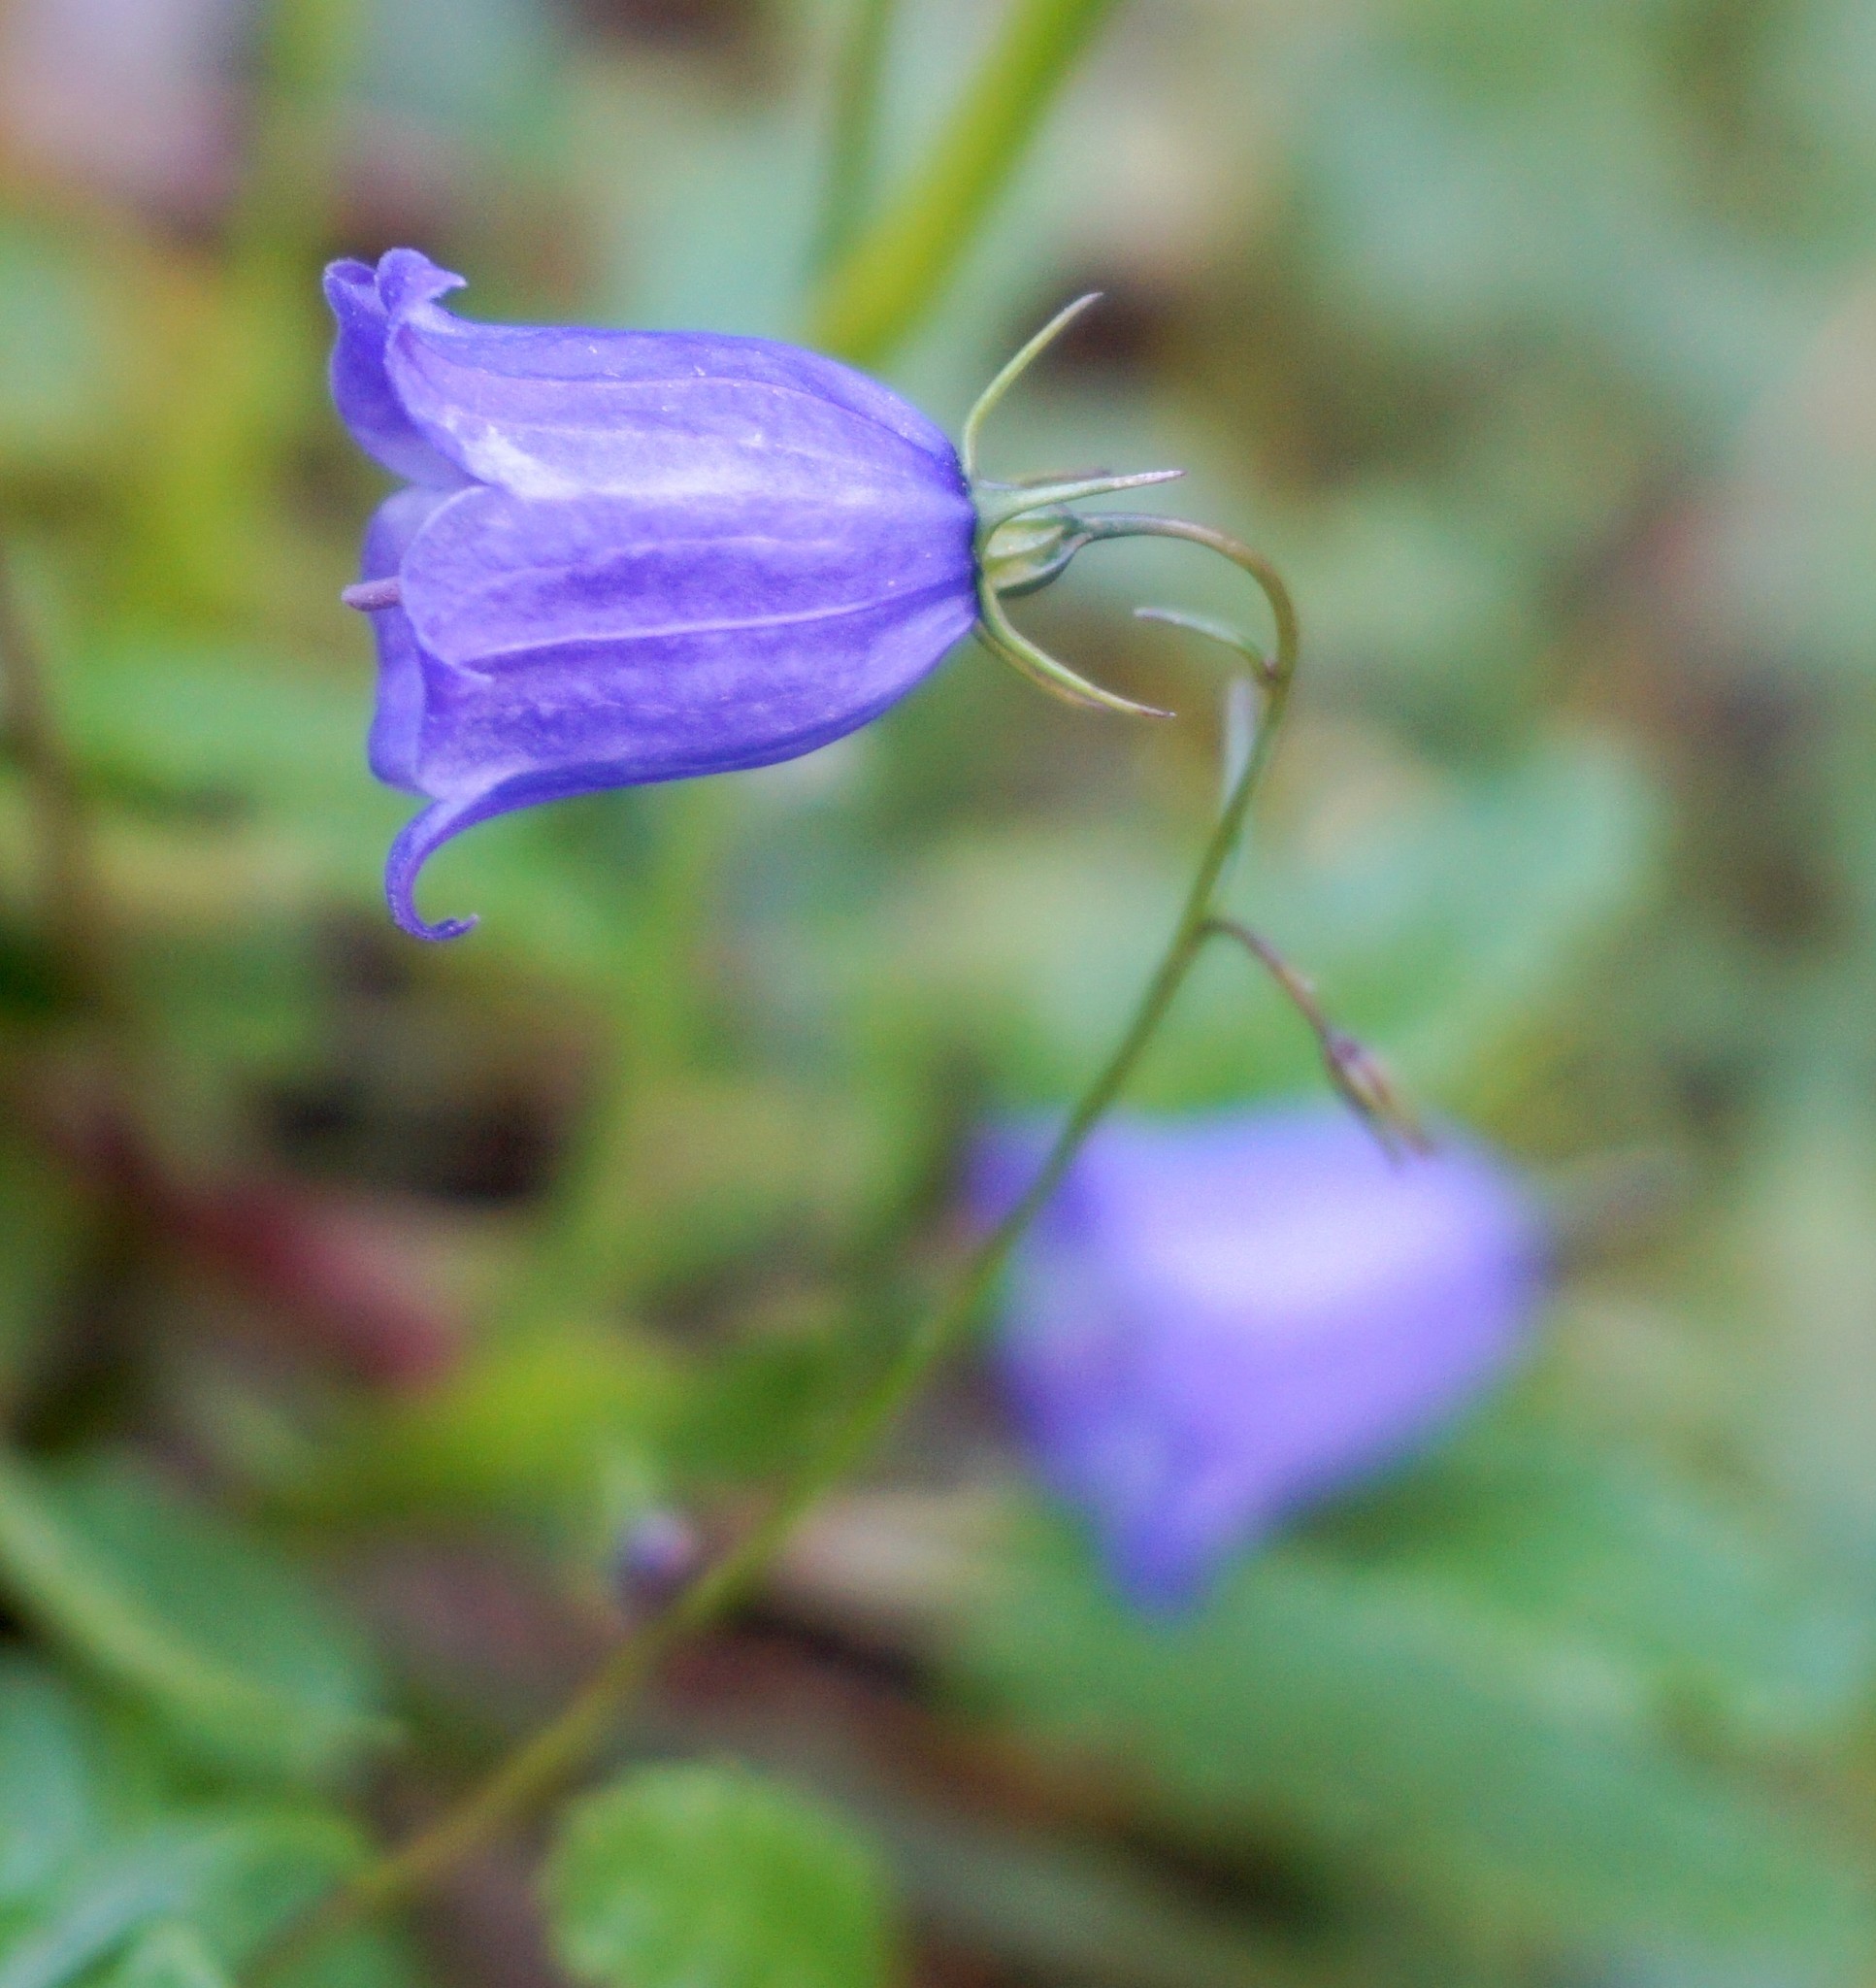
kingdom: Plantae
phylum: Tracheophyta
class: Magnoliopsida
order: Asterales
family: Campanulaceae
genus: Campanula
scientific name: Campanula cochleariifolia
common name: Fairies'-thimbles
